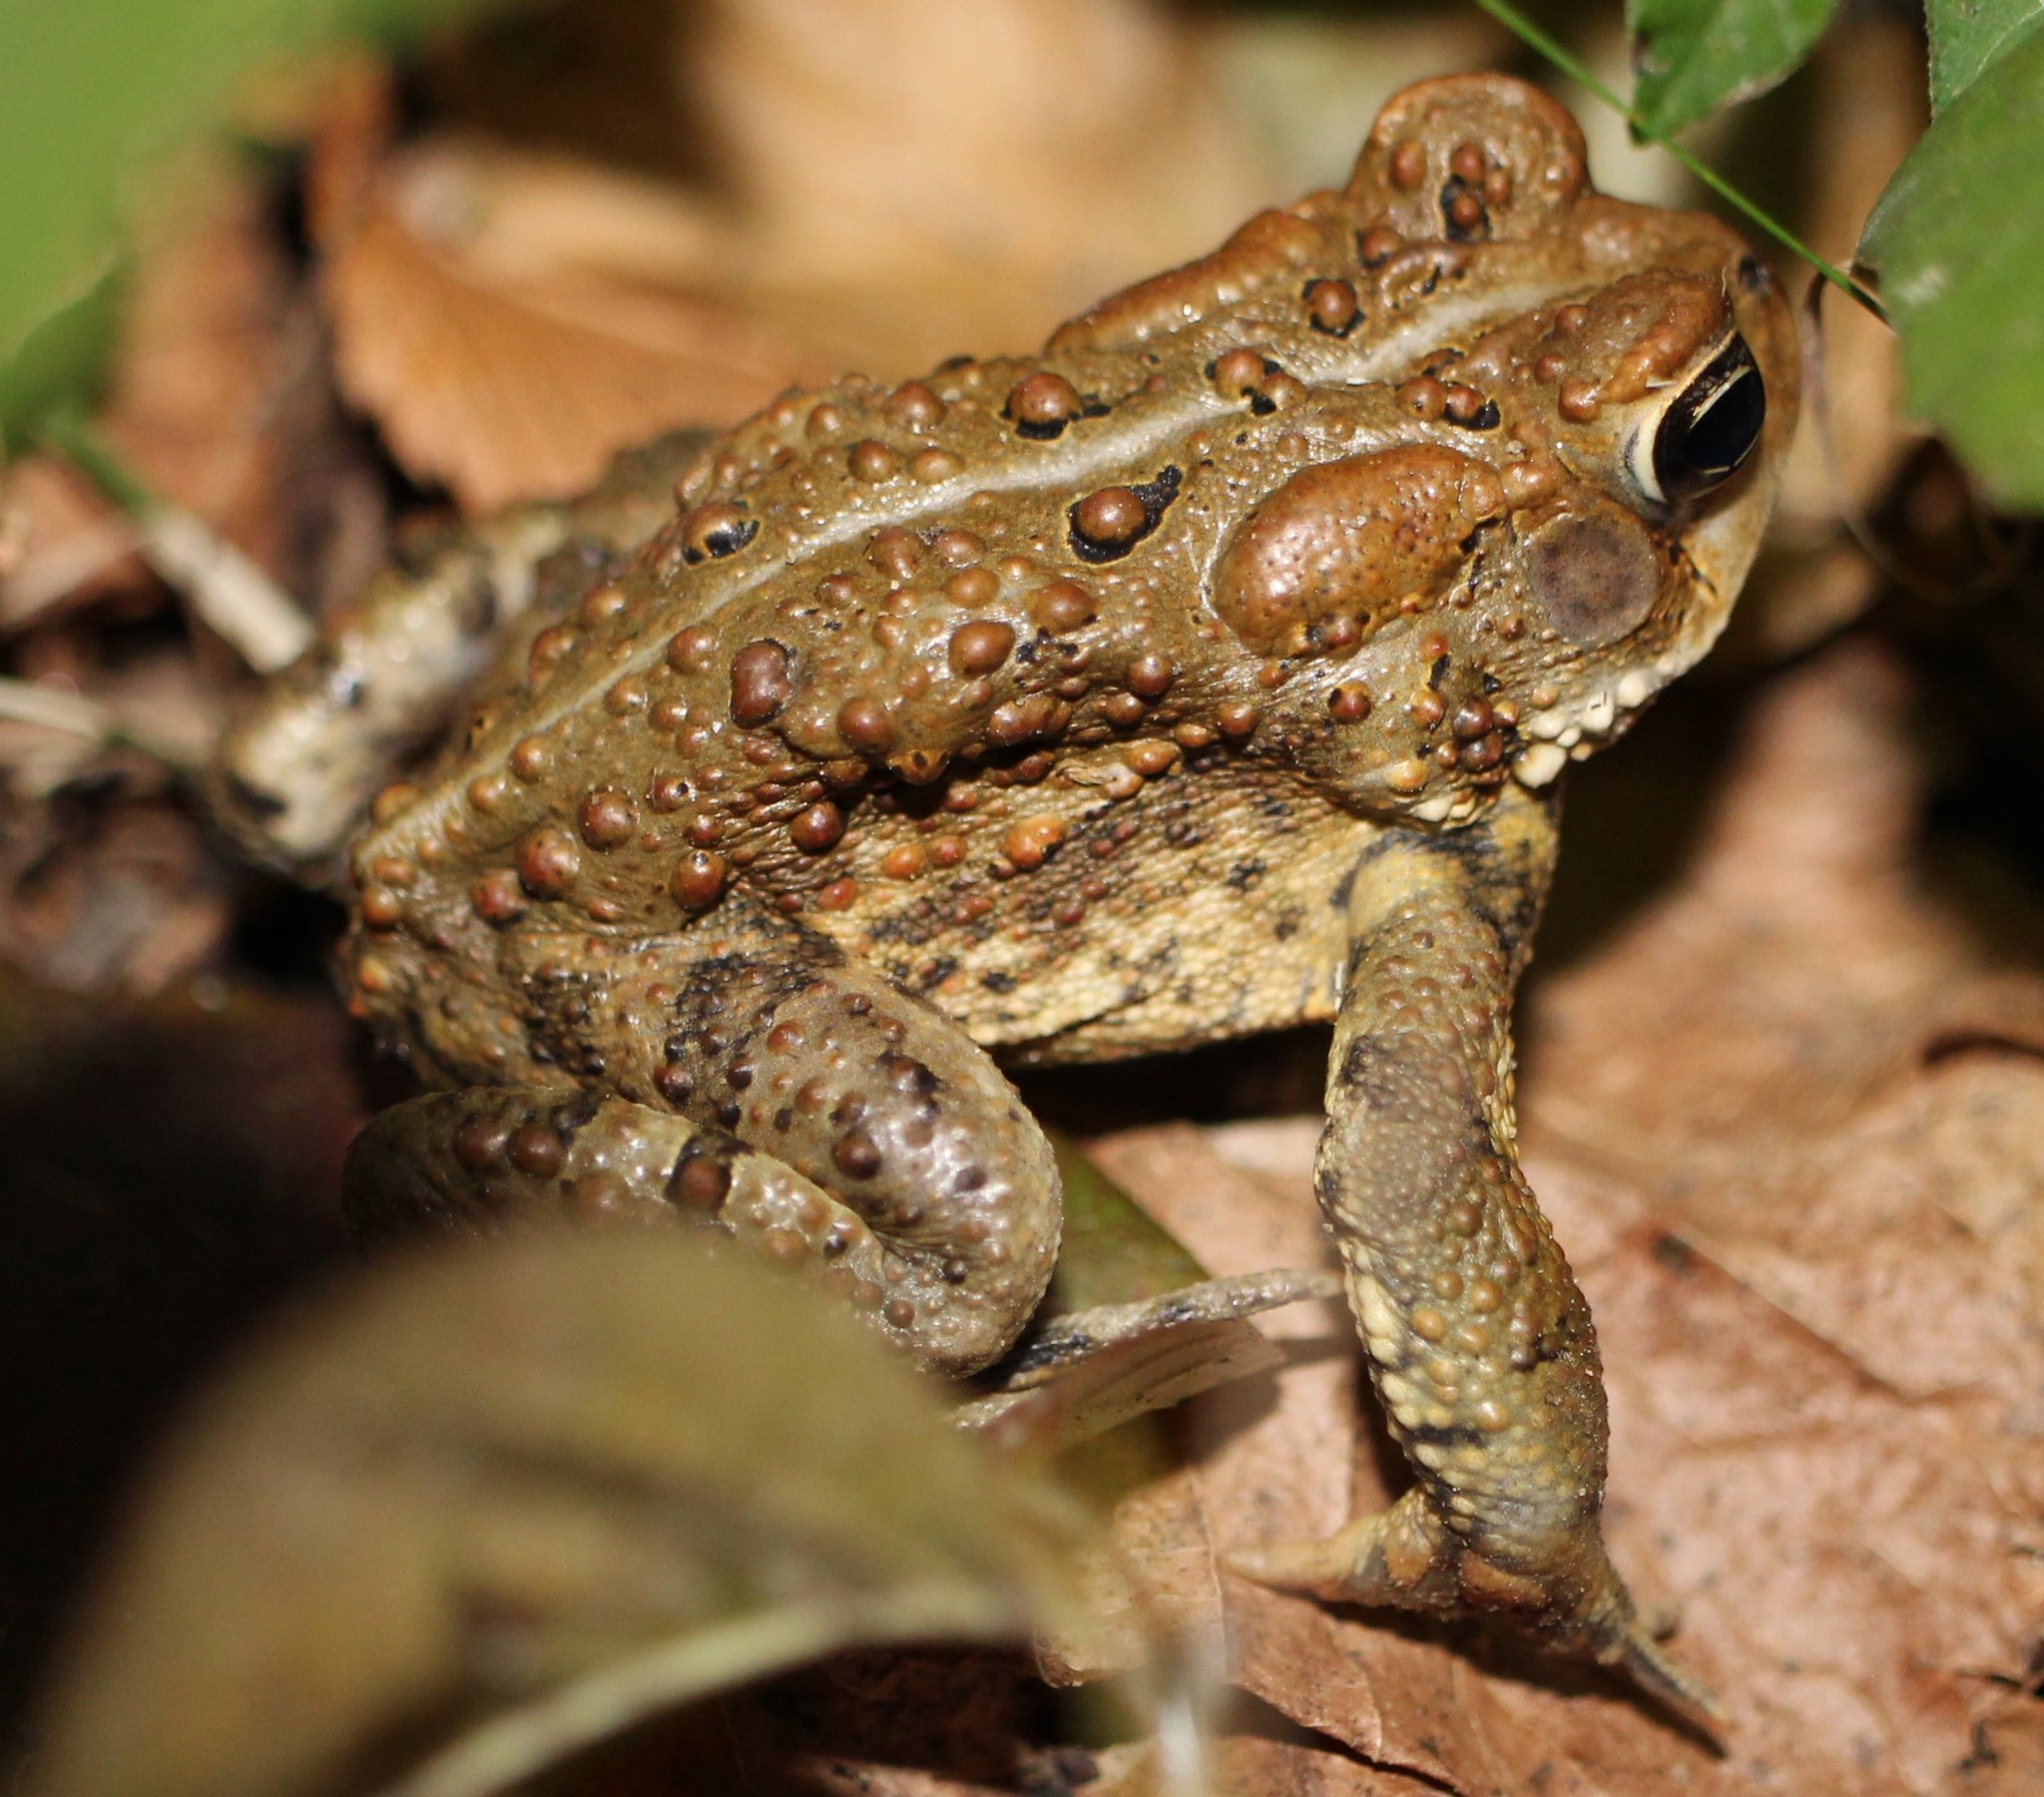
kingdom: Animalia
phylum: Chordata
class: Amphibia
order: Anura
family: Bufonidae
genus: Anaxyrus
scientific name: Anaxyrus americanus
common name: American toad
